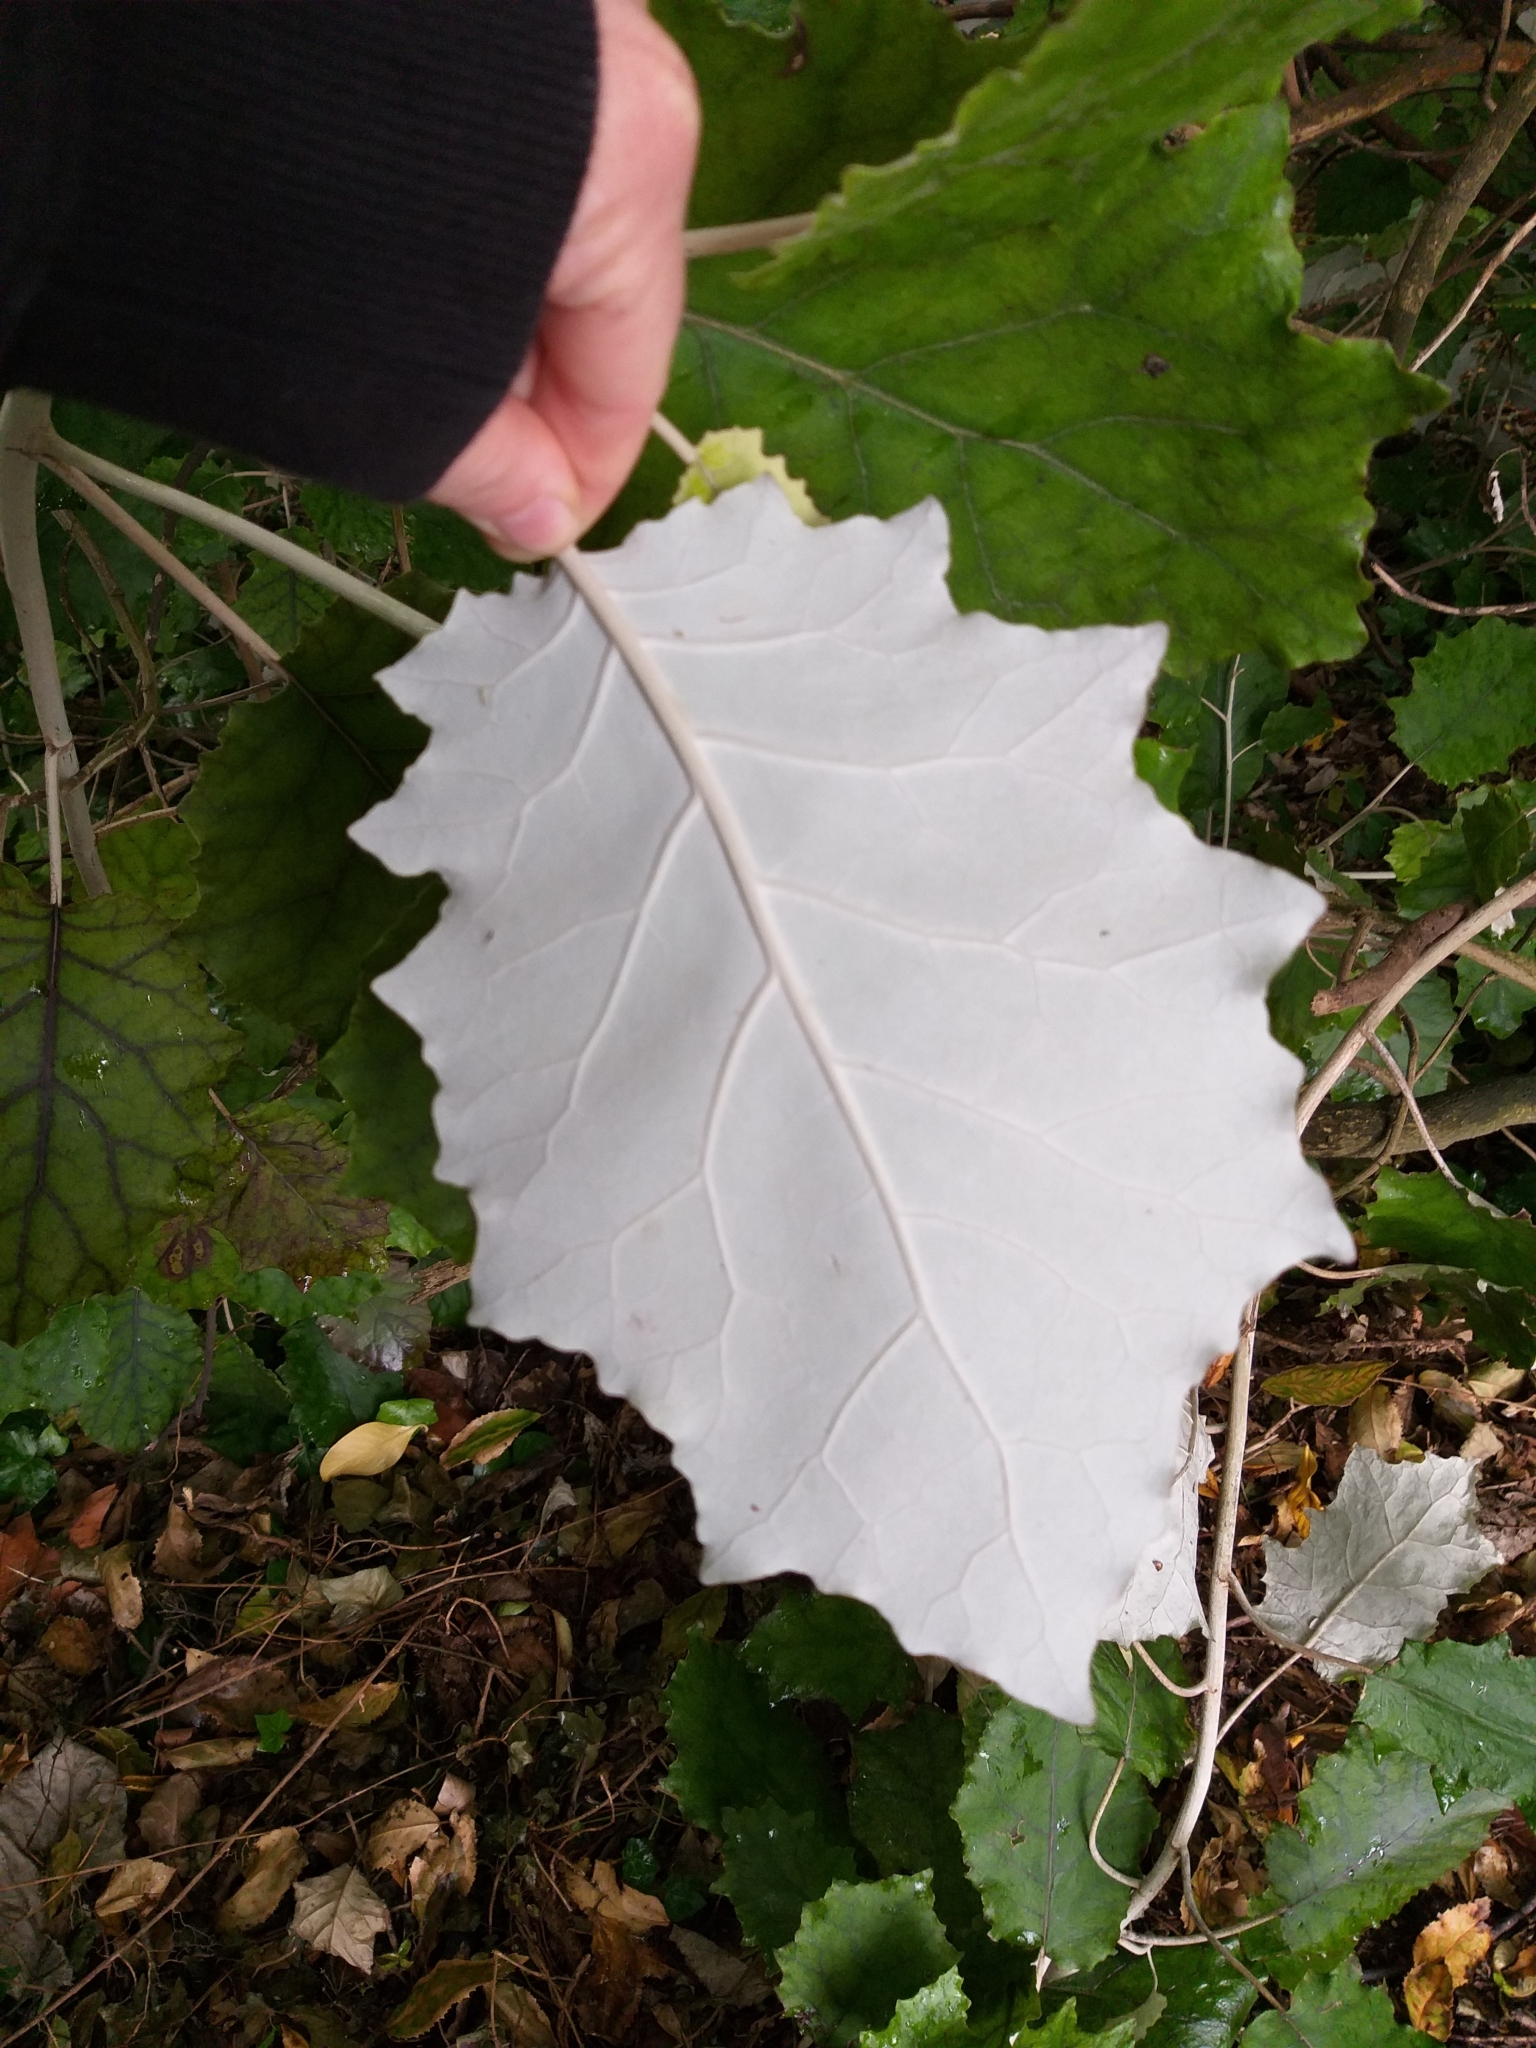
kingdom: Plantae
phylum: Tracheophyta
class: Magnoliopsida
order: Asterales
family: Asteraceae
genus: Brachyglottis
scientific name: Brachyglottis repanda
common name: Hedge ragwort
